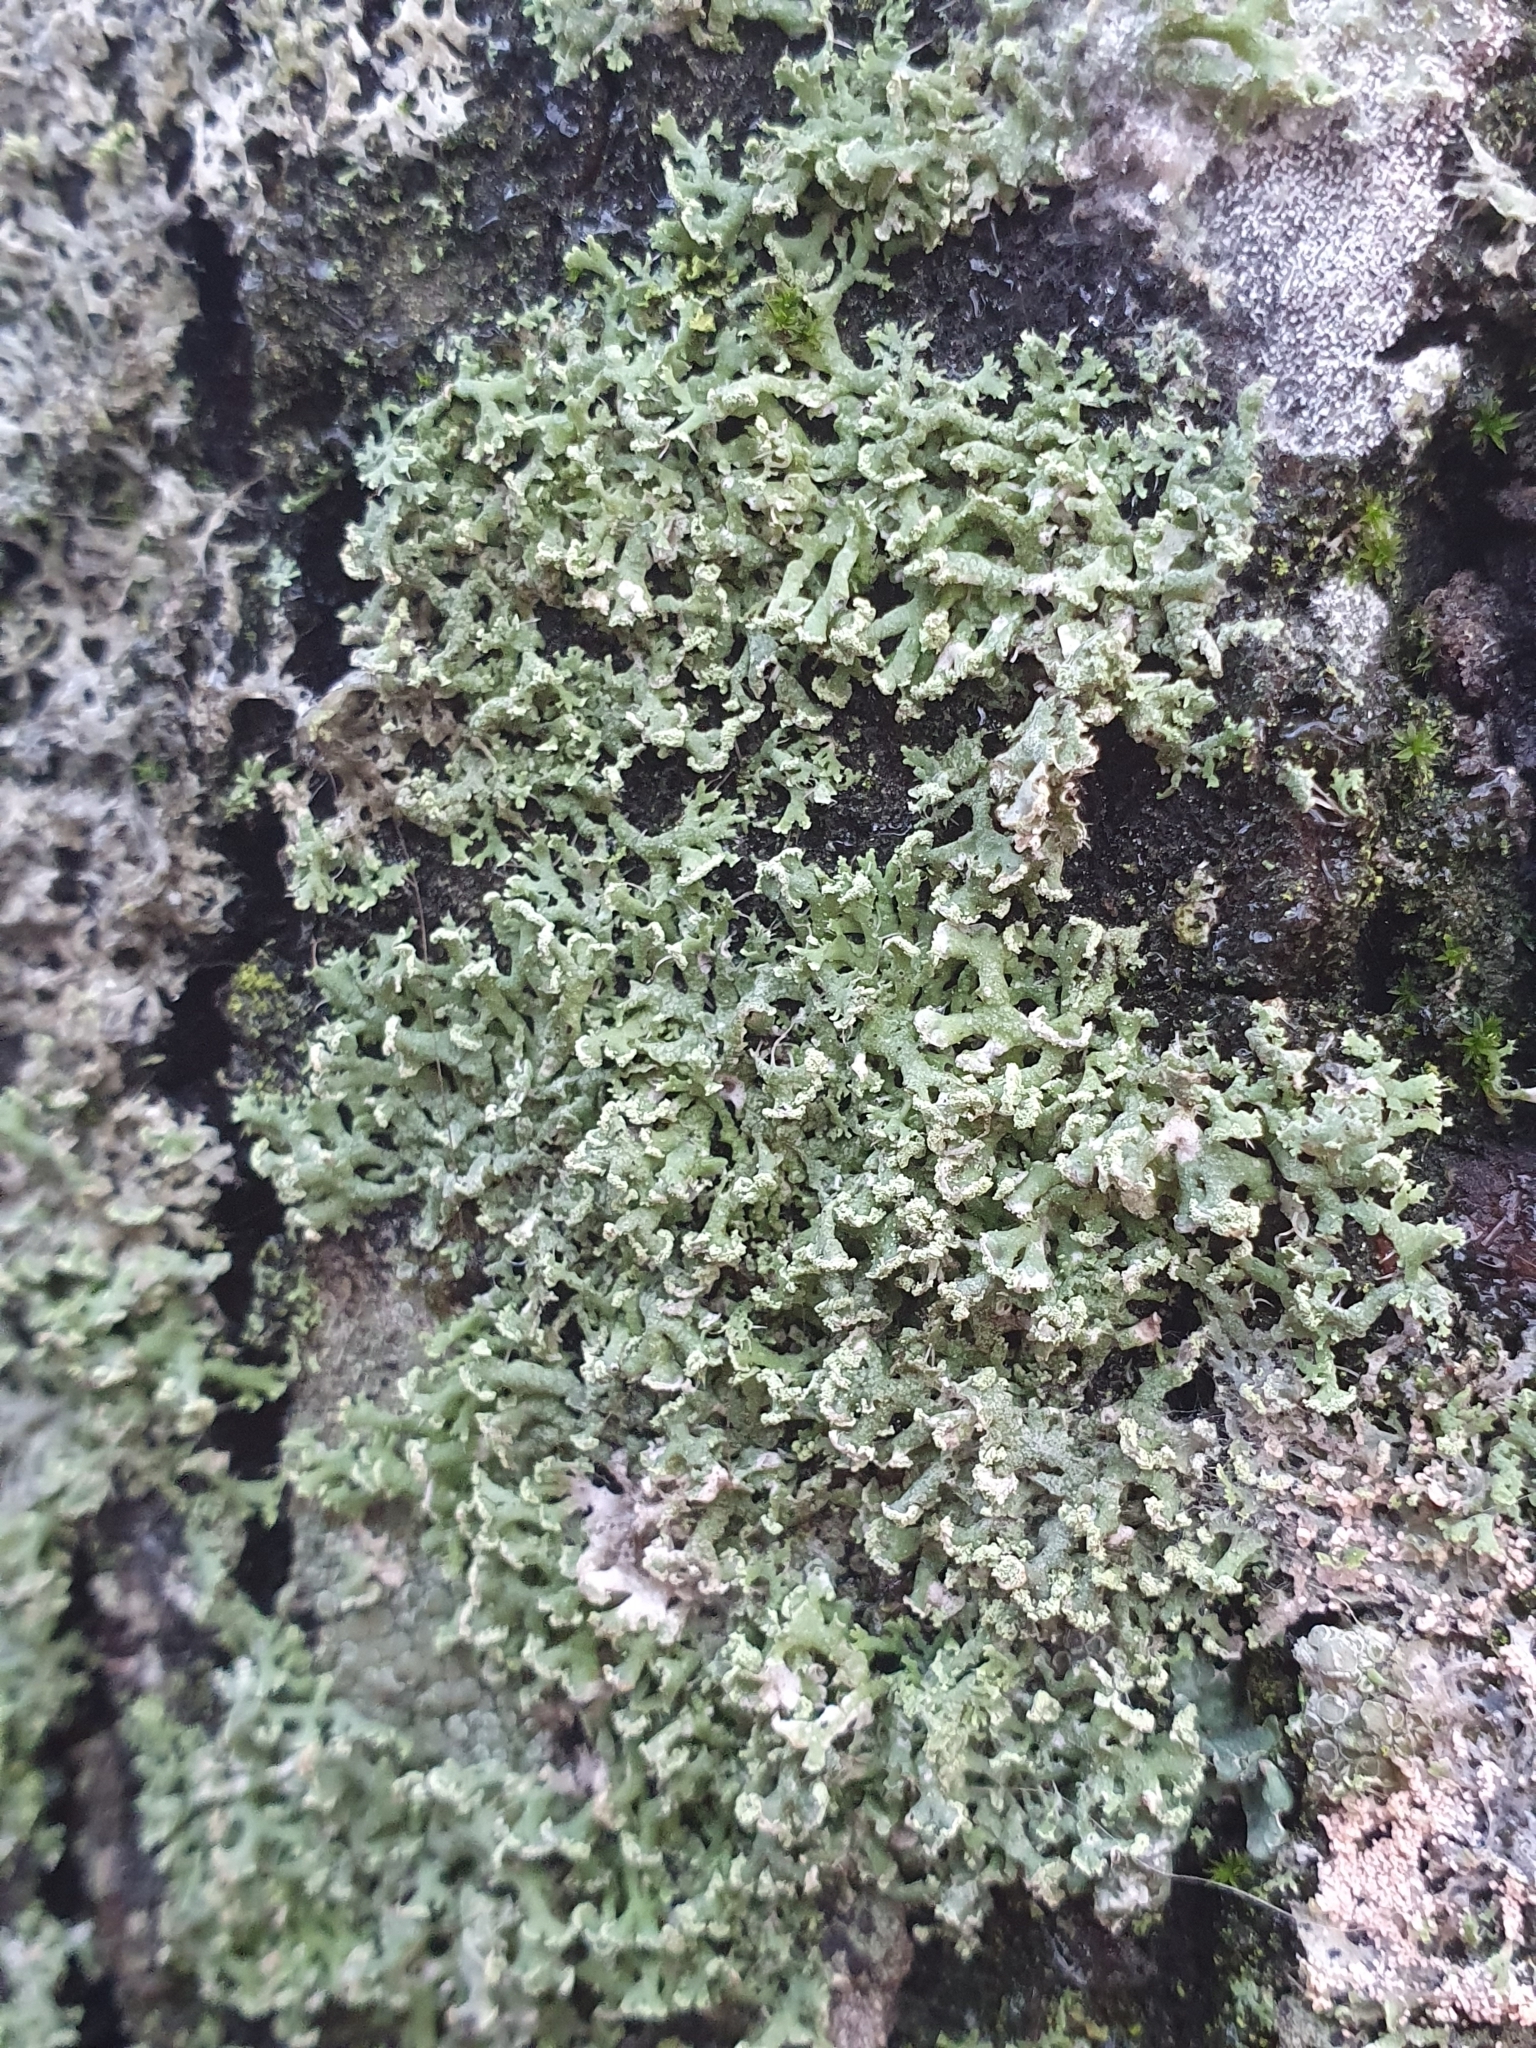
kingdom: Fungi
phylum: Ascomycota
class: Lecanoromycetes
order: Caliciales
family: Physciaceae
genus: Physcia
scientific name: Physcia tenella
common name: Fringed rosette lichen
